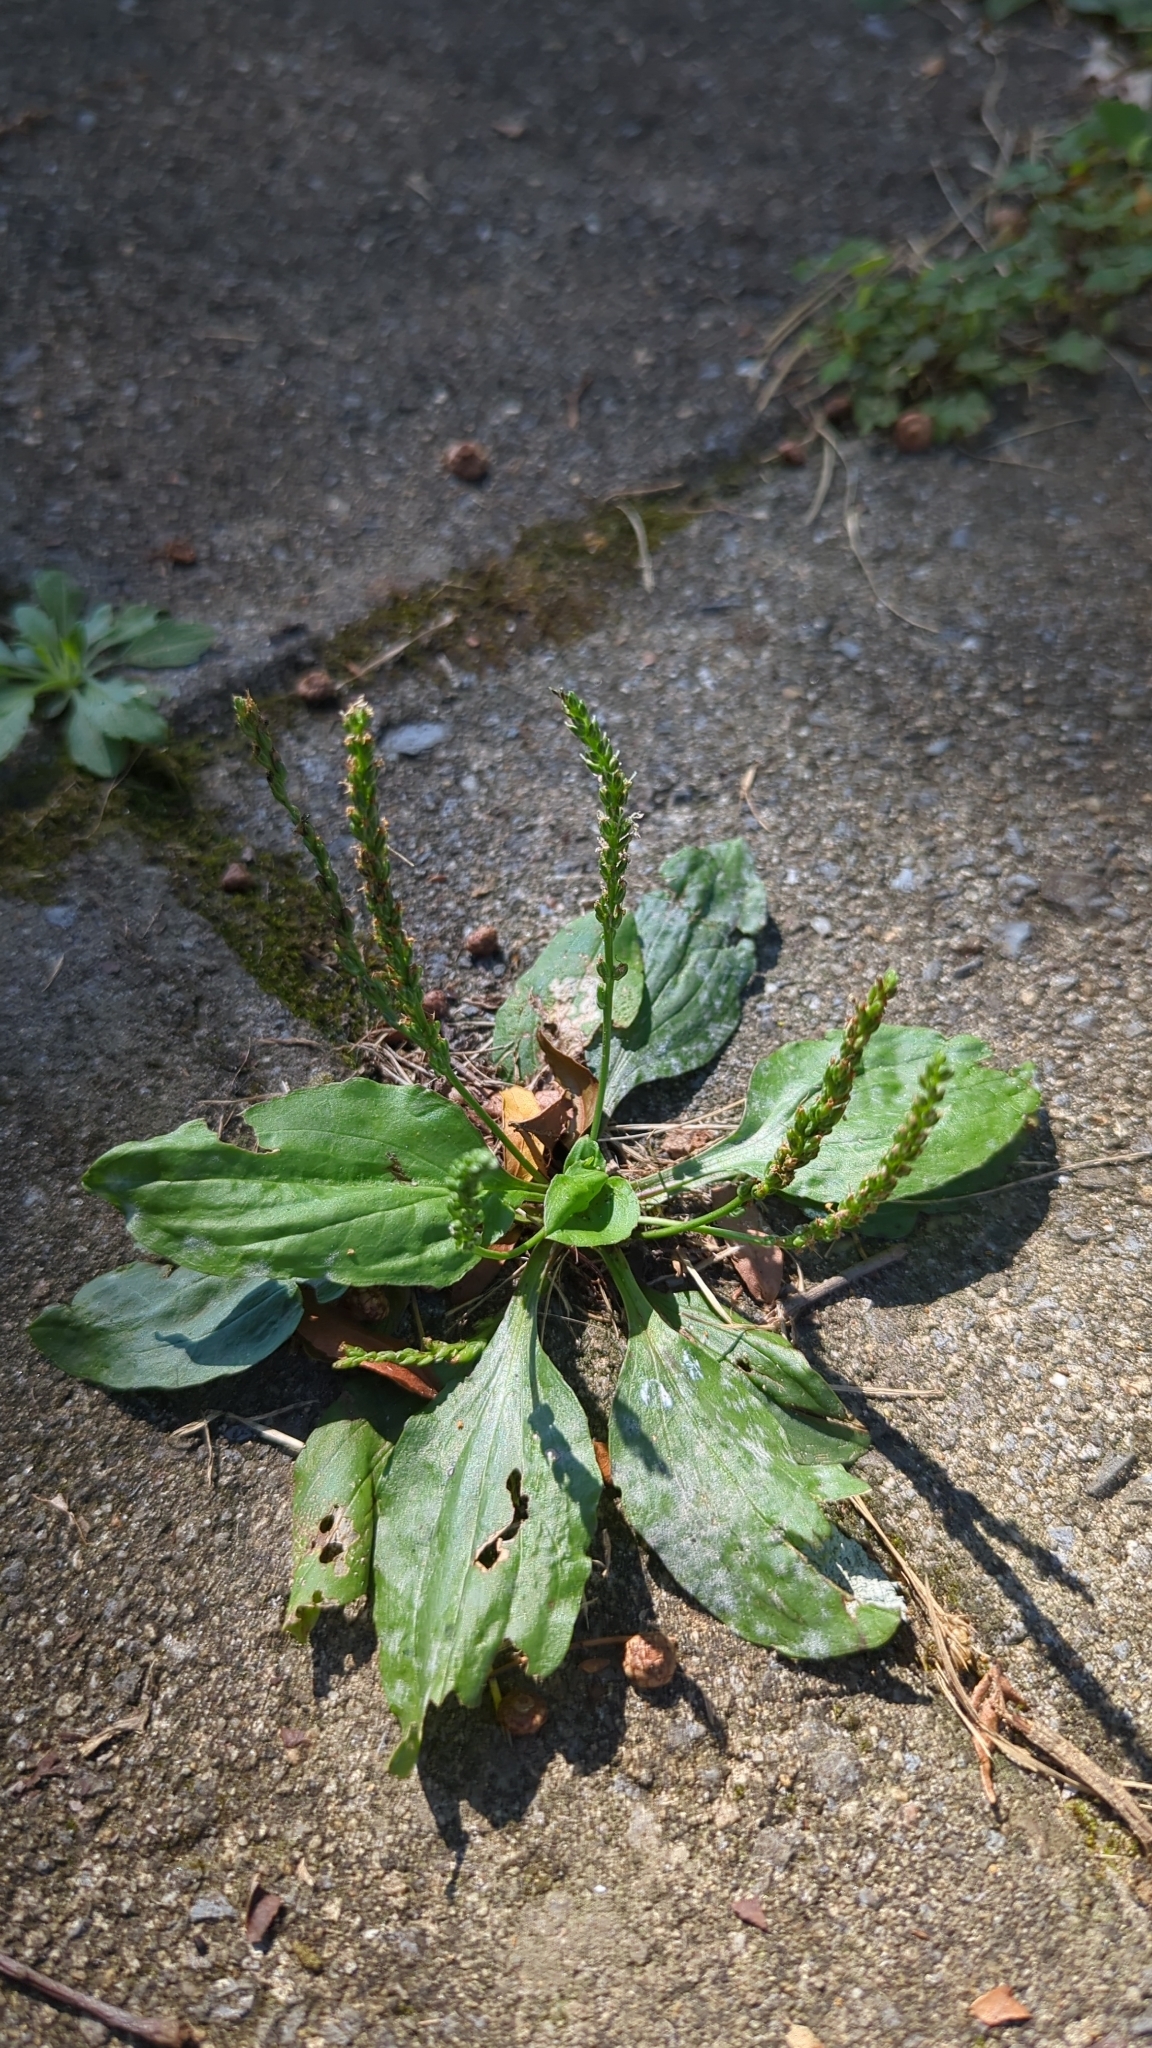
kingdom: Plantae
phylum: Tracheophyta
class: Magnoliopsida
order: Lamiales
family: Plantaginaceae
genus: Plantago
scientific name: Plantago major
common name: Common plantain
